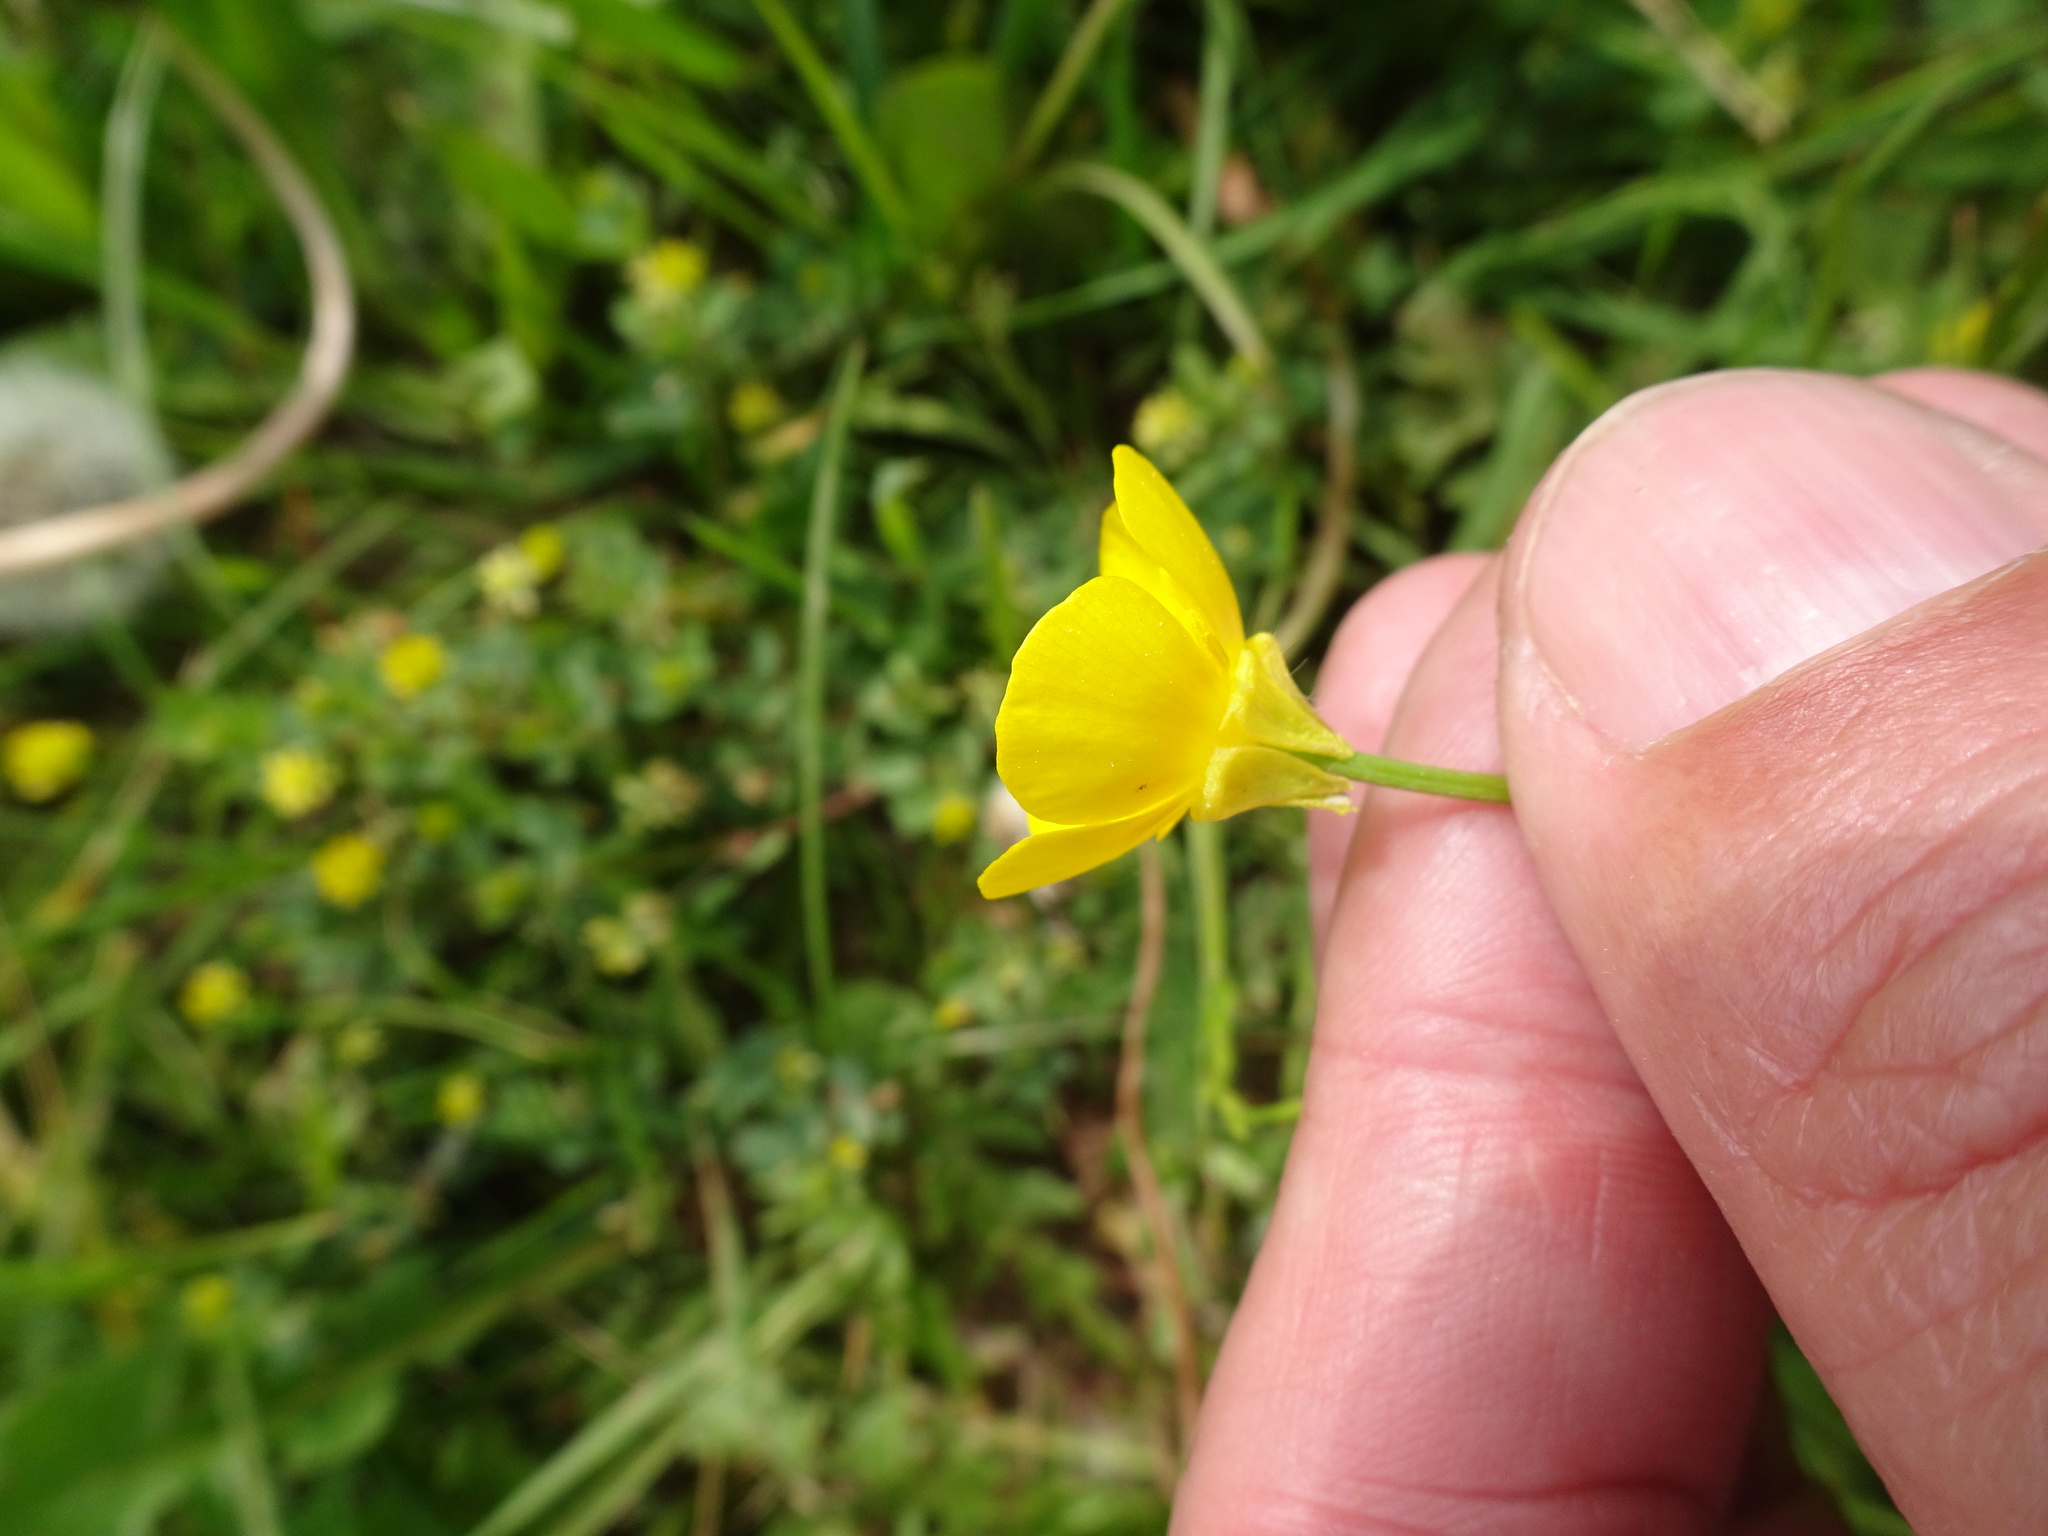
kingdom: Plantae
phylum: Tracheophyta
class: Magnoliopsida
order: Ranunculales
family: Ranunculaceae
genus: Ranunculus
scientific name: Ranunculus bulbosus
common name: Bulbous buttercup
